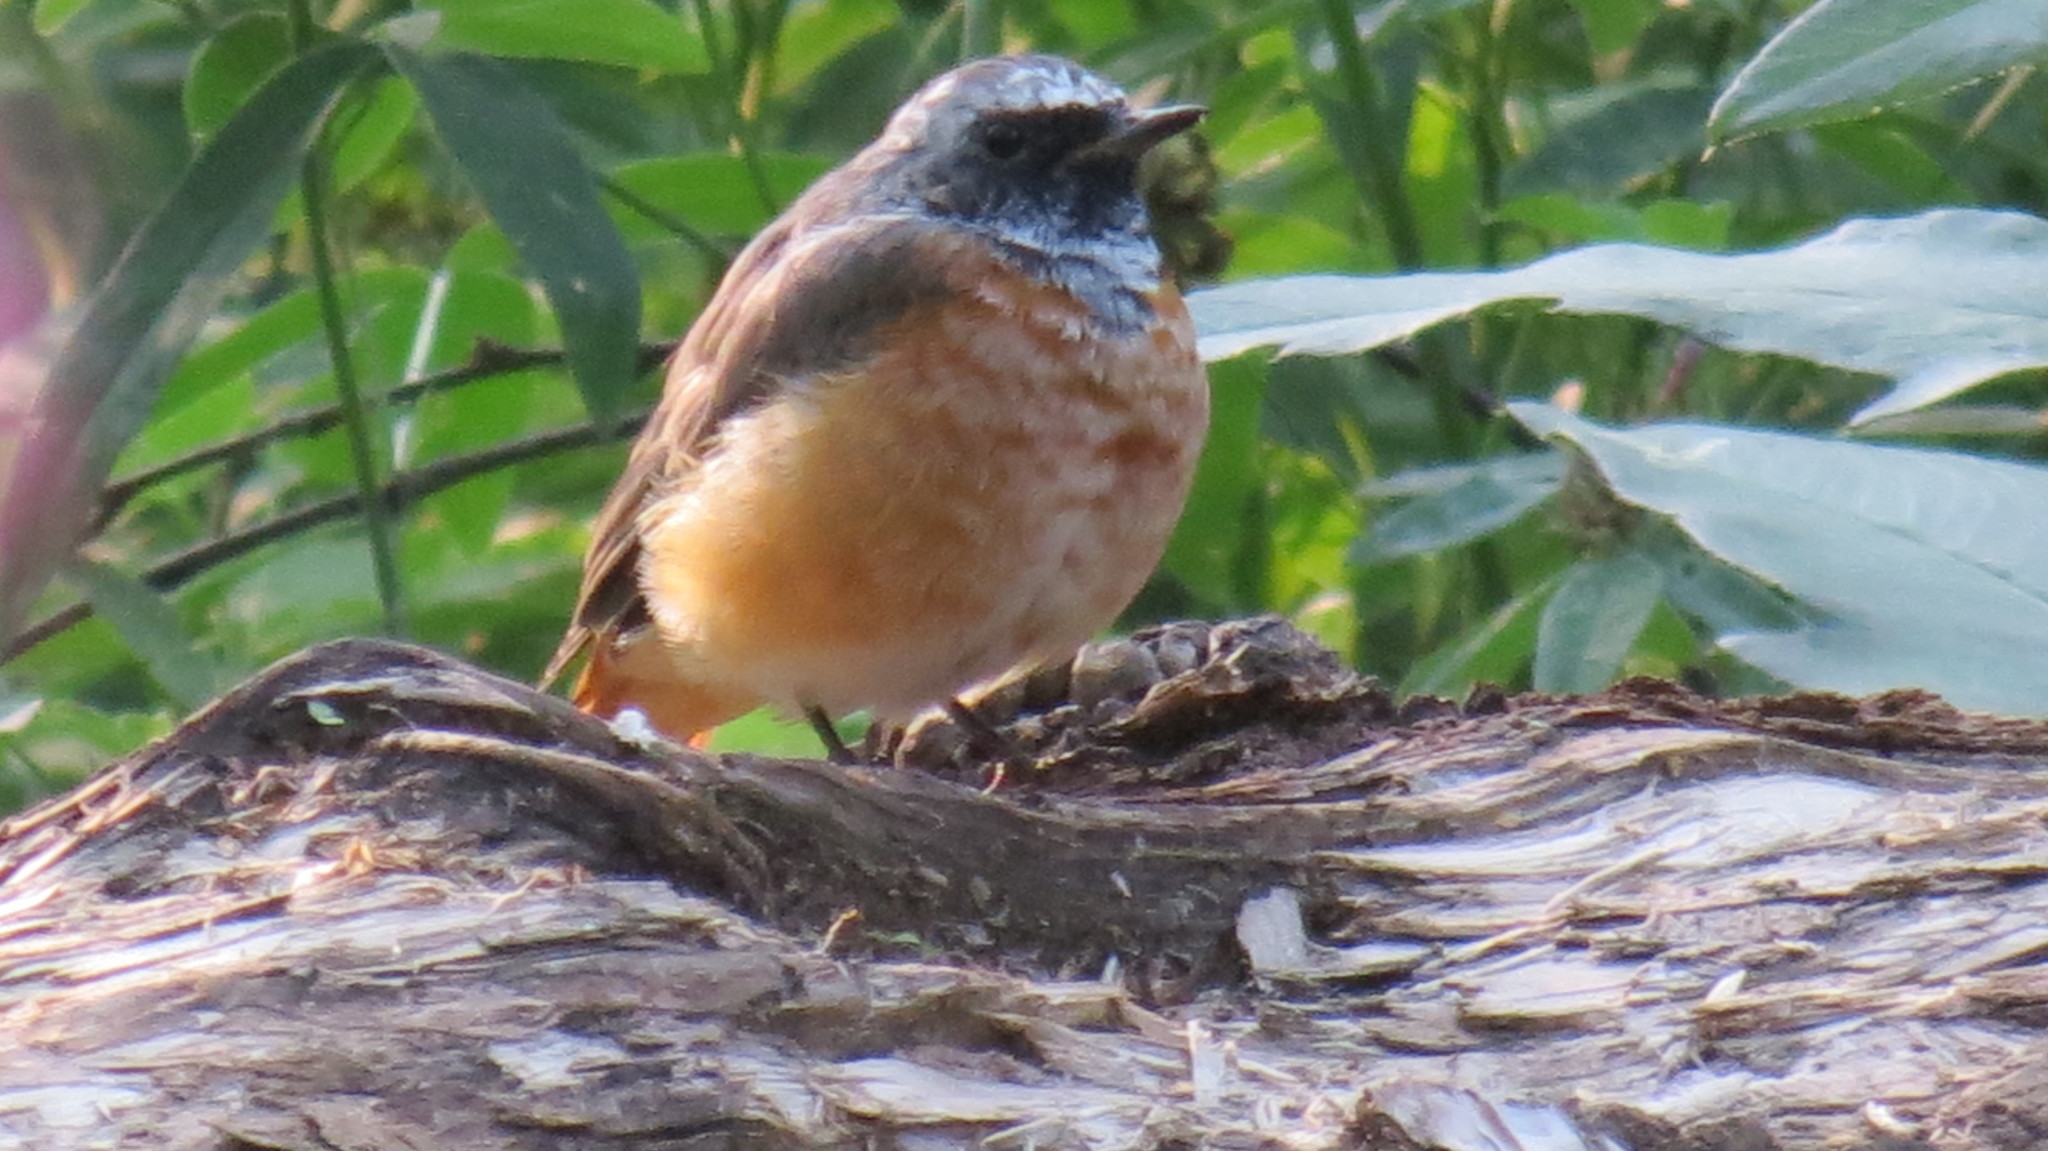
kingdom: Animalia
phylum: Chordata
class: Aves
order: Passeriformes
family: Muscicapidae
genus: Phoenicurus
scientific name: Phoenicurus phoenicurus
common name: Common redstart
